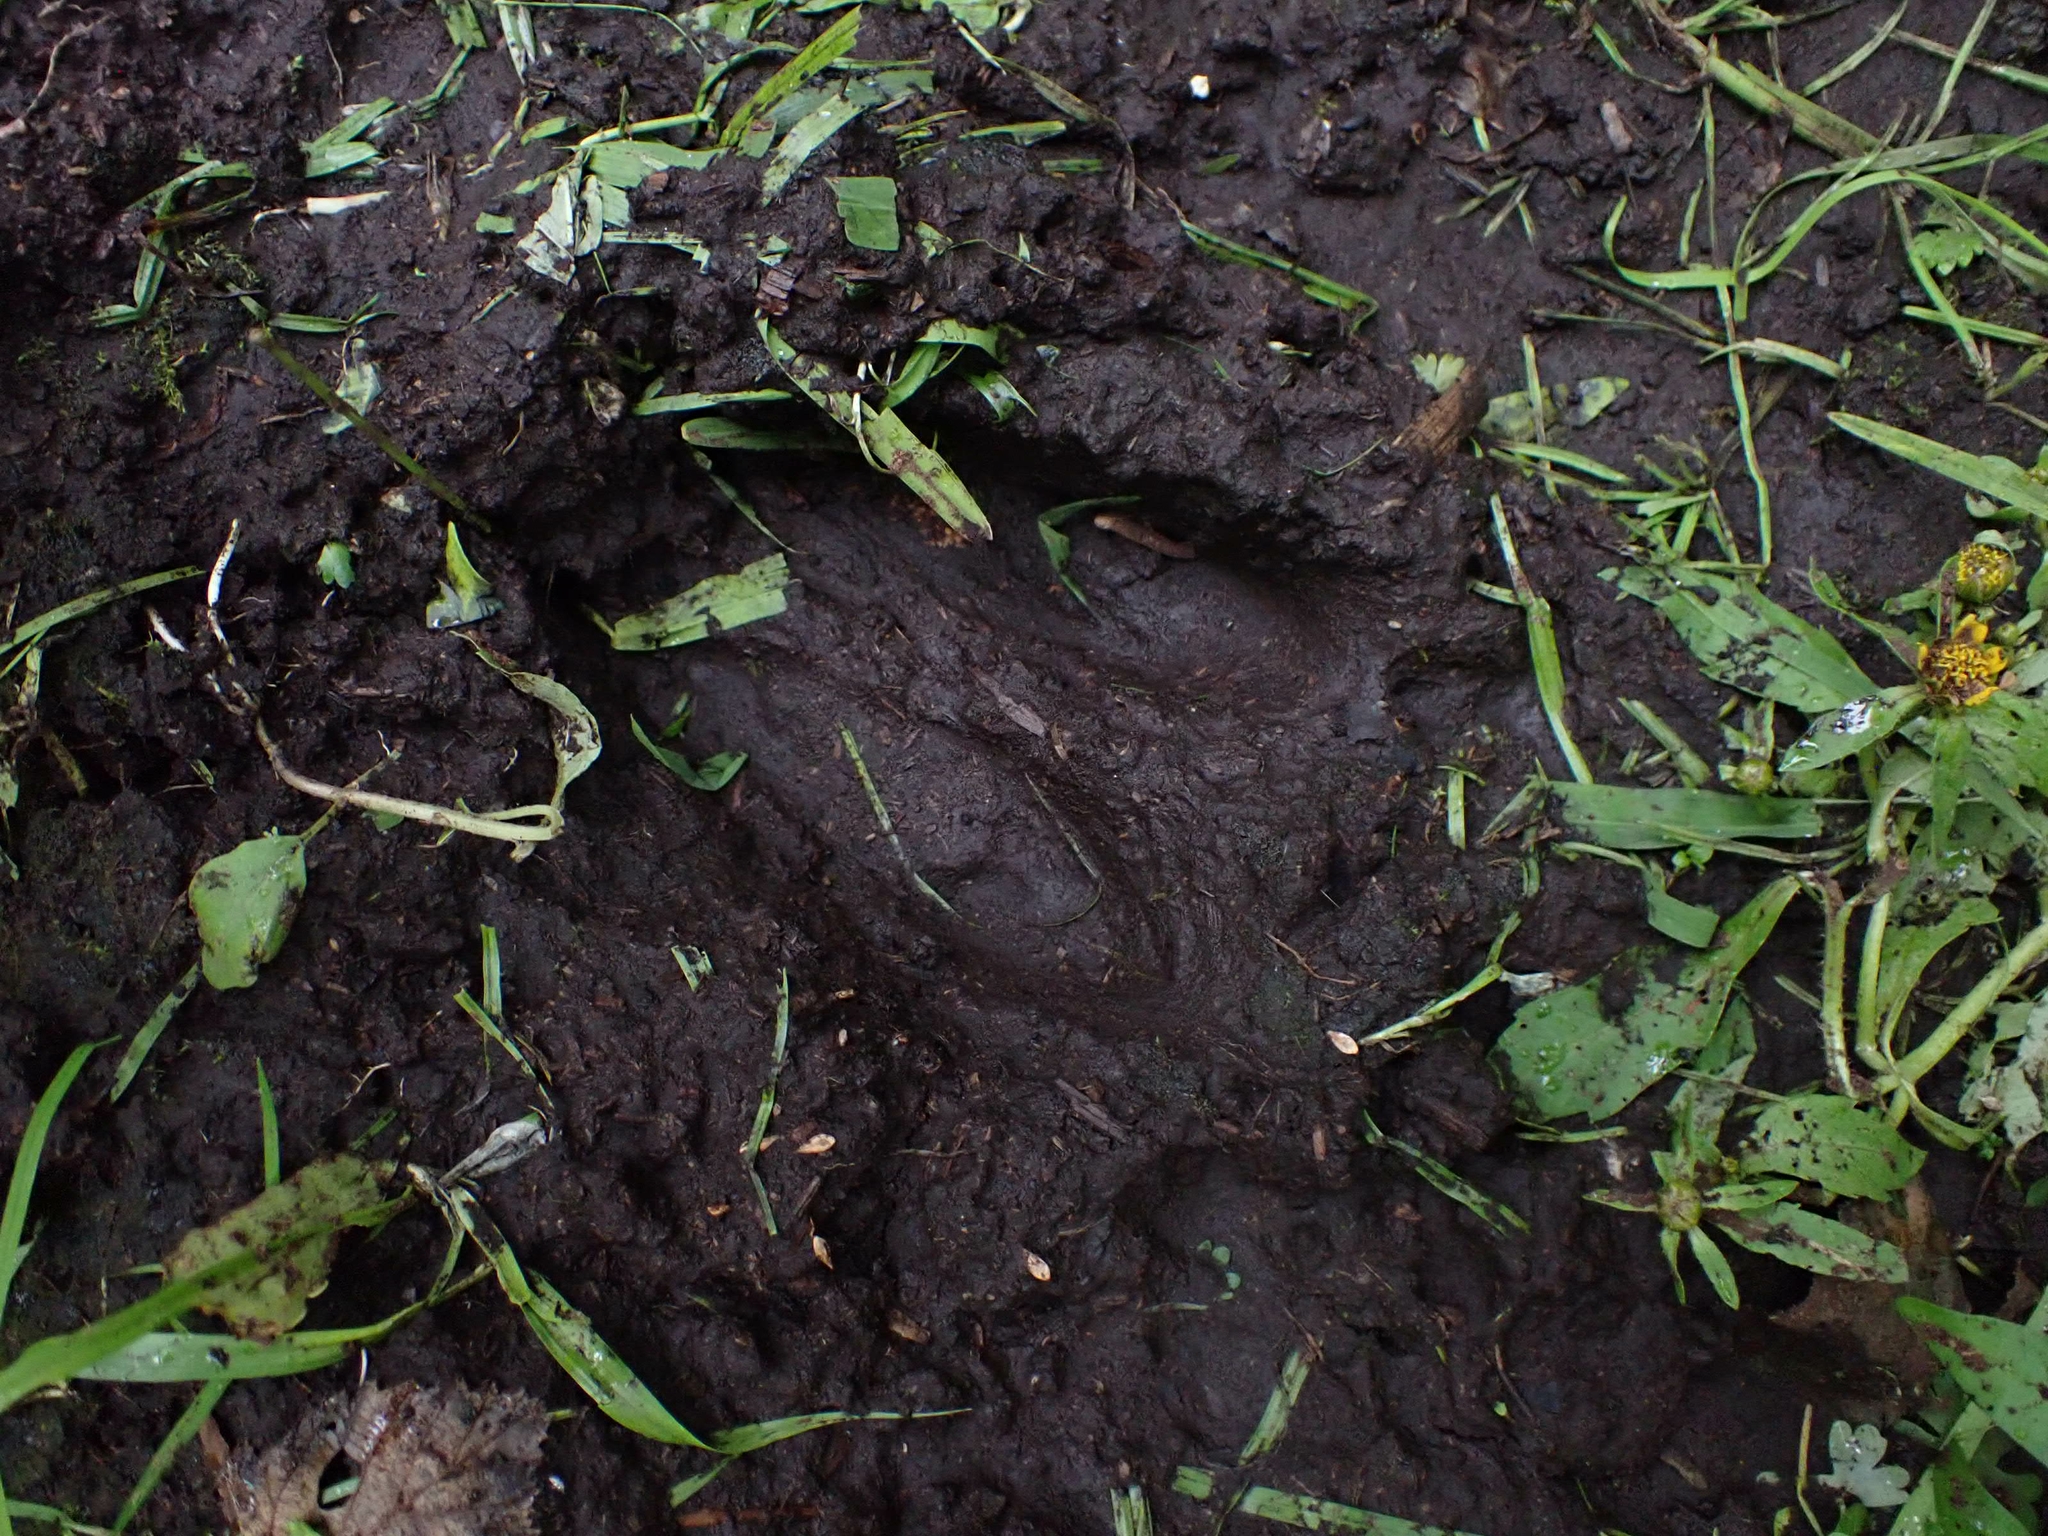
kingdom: Animalia
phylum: Chordata
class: Mammalia
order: Artiodactyla
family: Cervidae
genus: Odocoileus
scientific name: Odocoileus virginianus
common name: White-tailed deer
